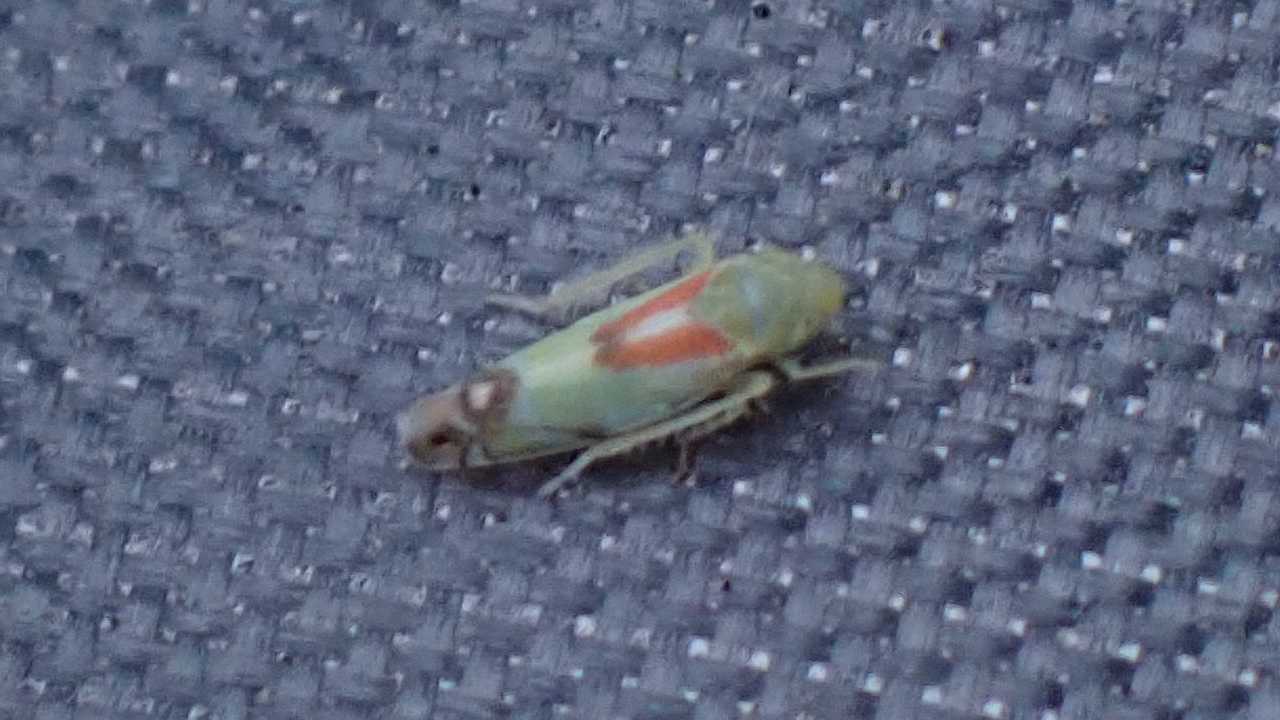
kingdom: Animalia
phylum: Arthropoda
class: Insecta
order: Hemiptera
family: Cicadellidae
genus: Zyginella
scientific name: Zyginella pulchra
